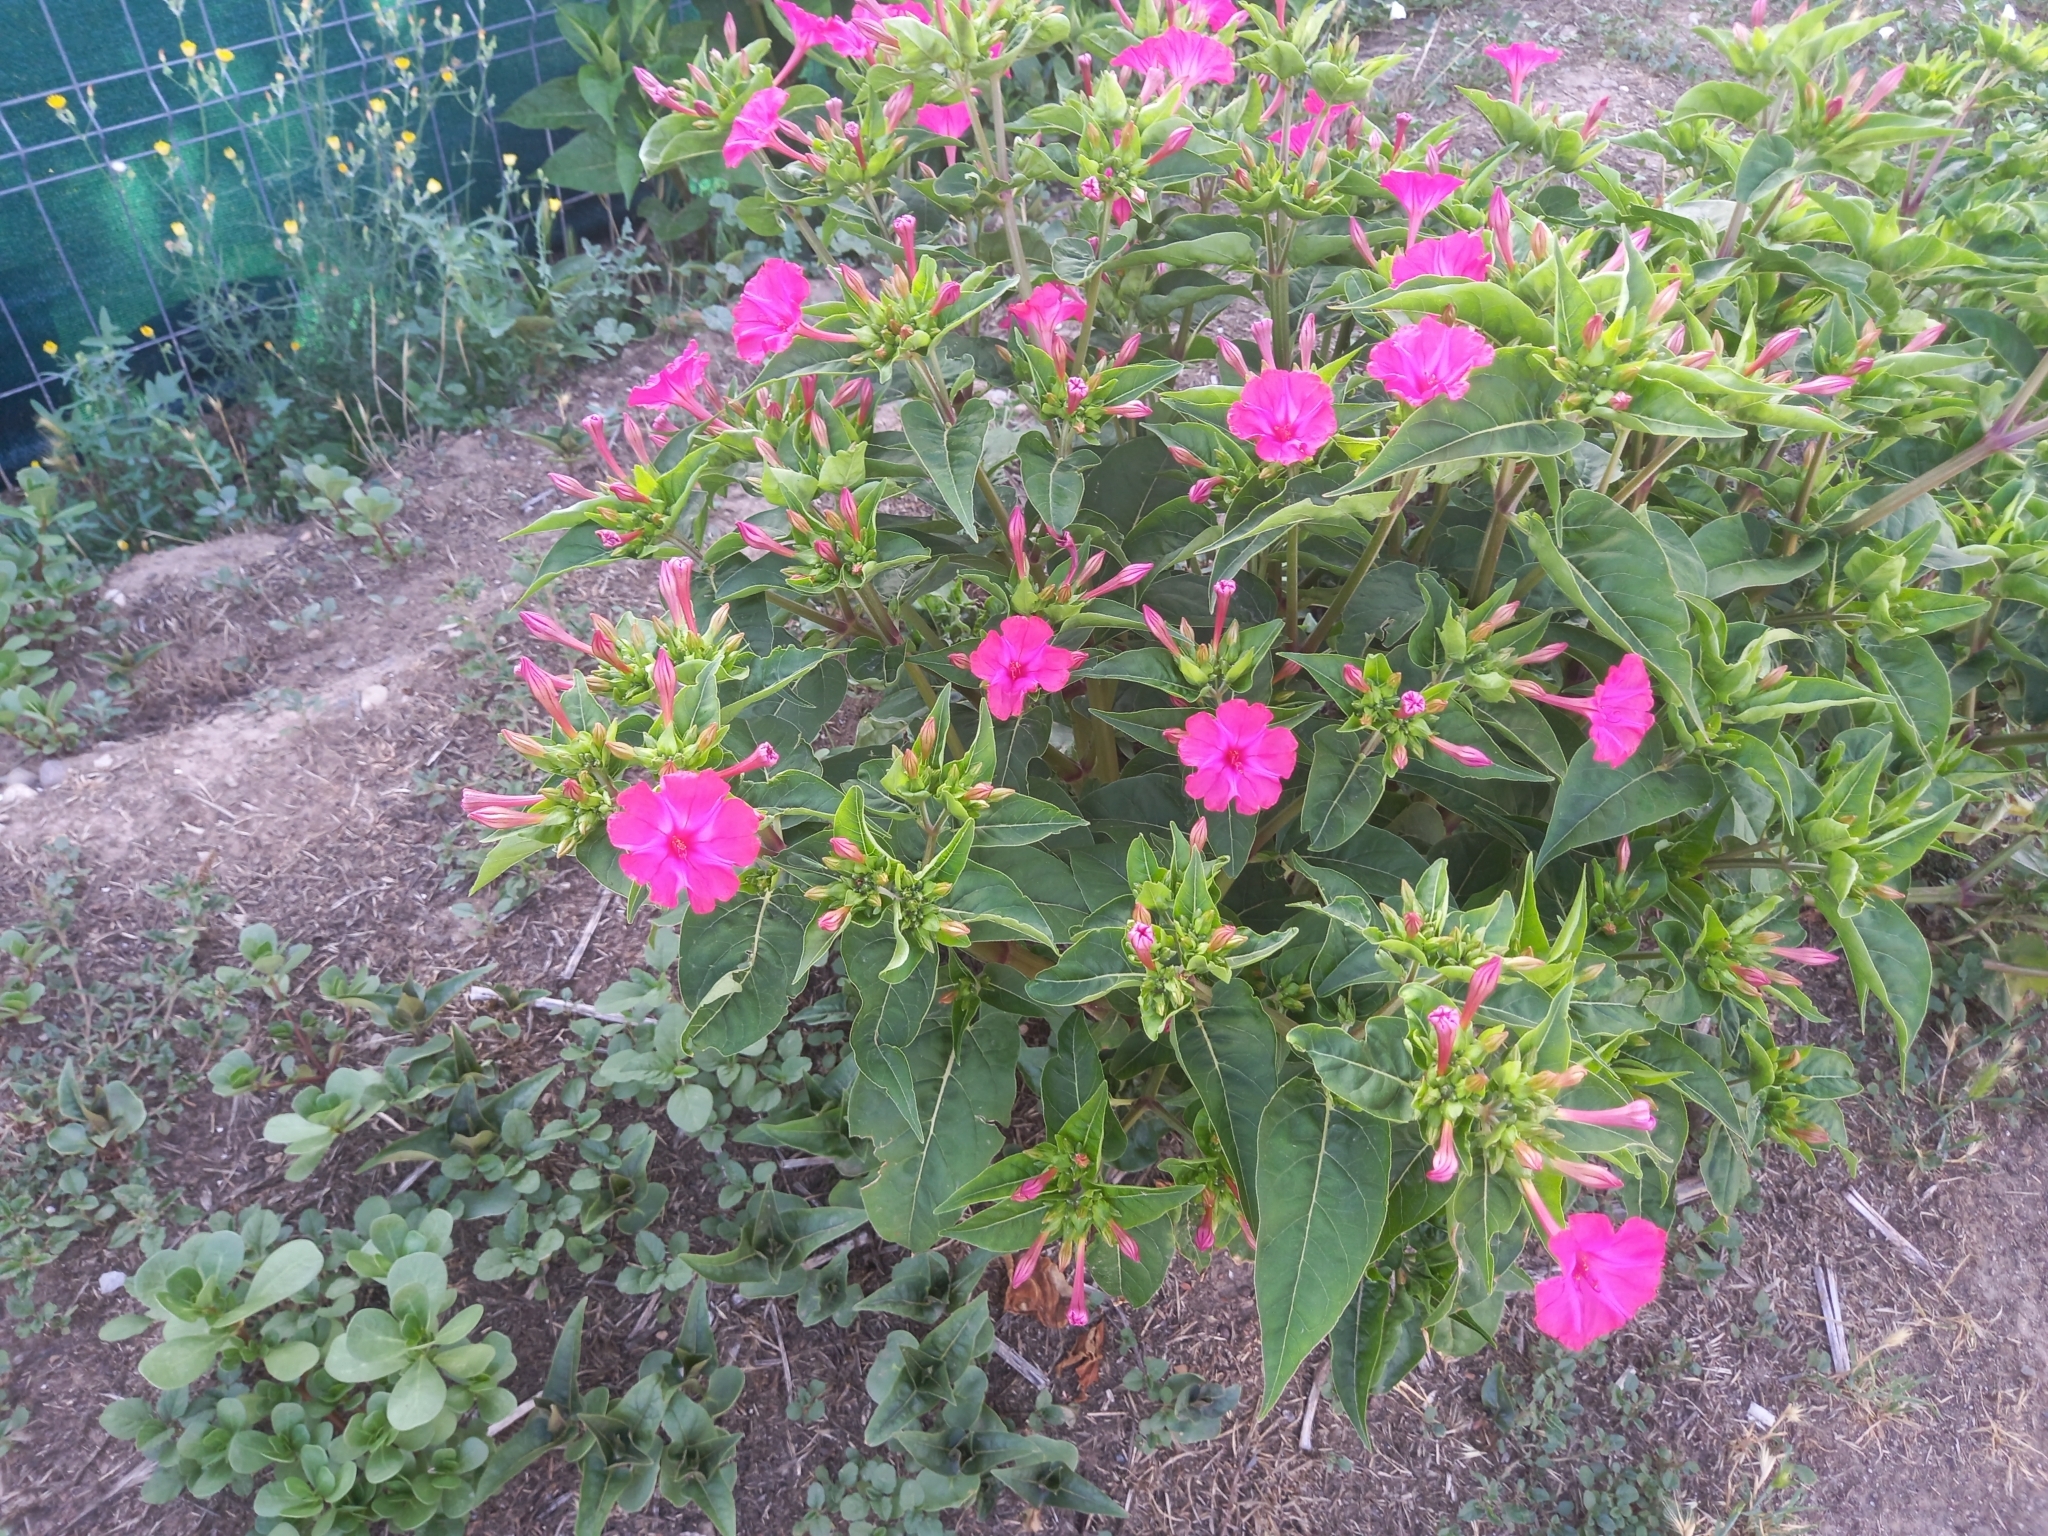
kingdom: Plantae
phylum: Tracheophyta
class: Magnoliopsida
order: Caryophyllales
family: Nyctaginaceae
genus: Mirabilis
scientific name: Mirabilis jalapa
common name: Marvel-of-peru
